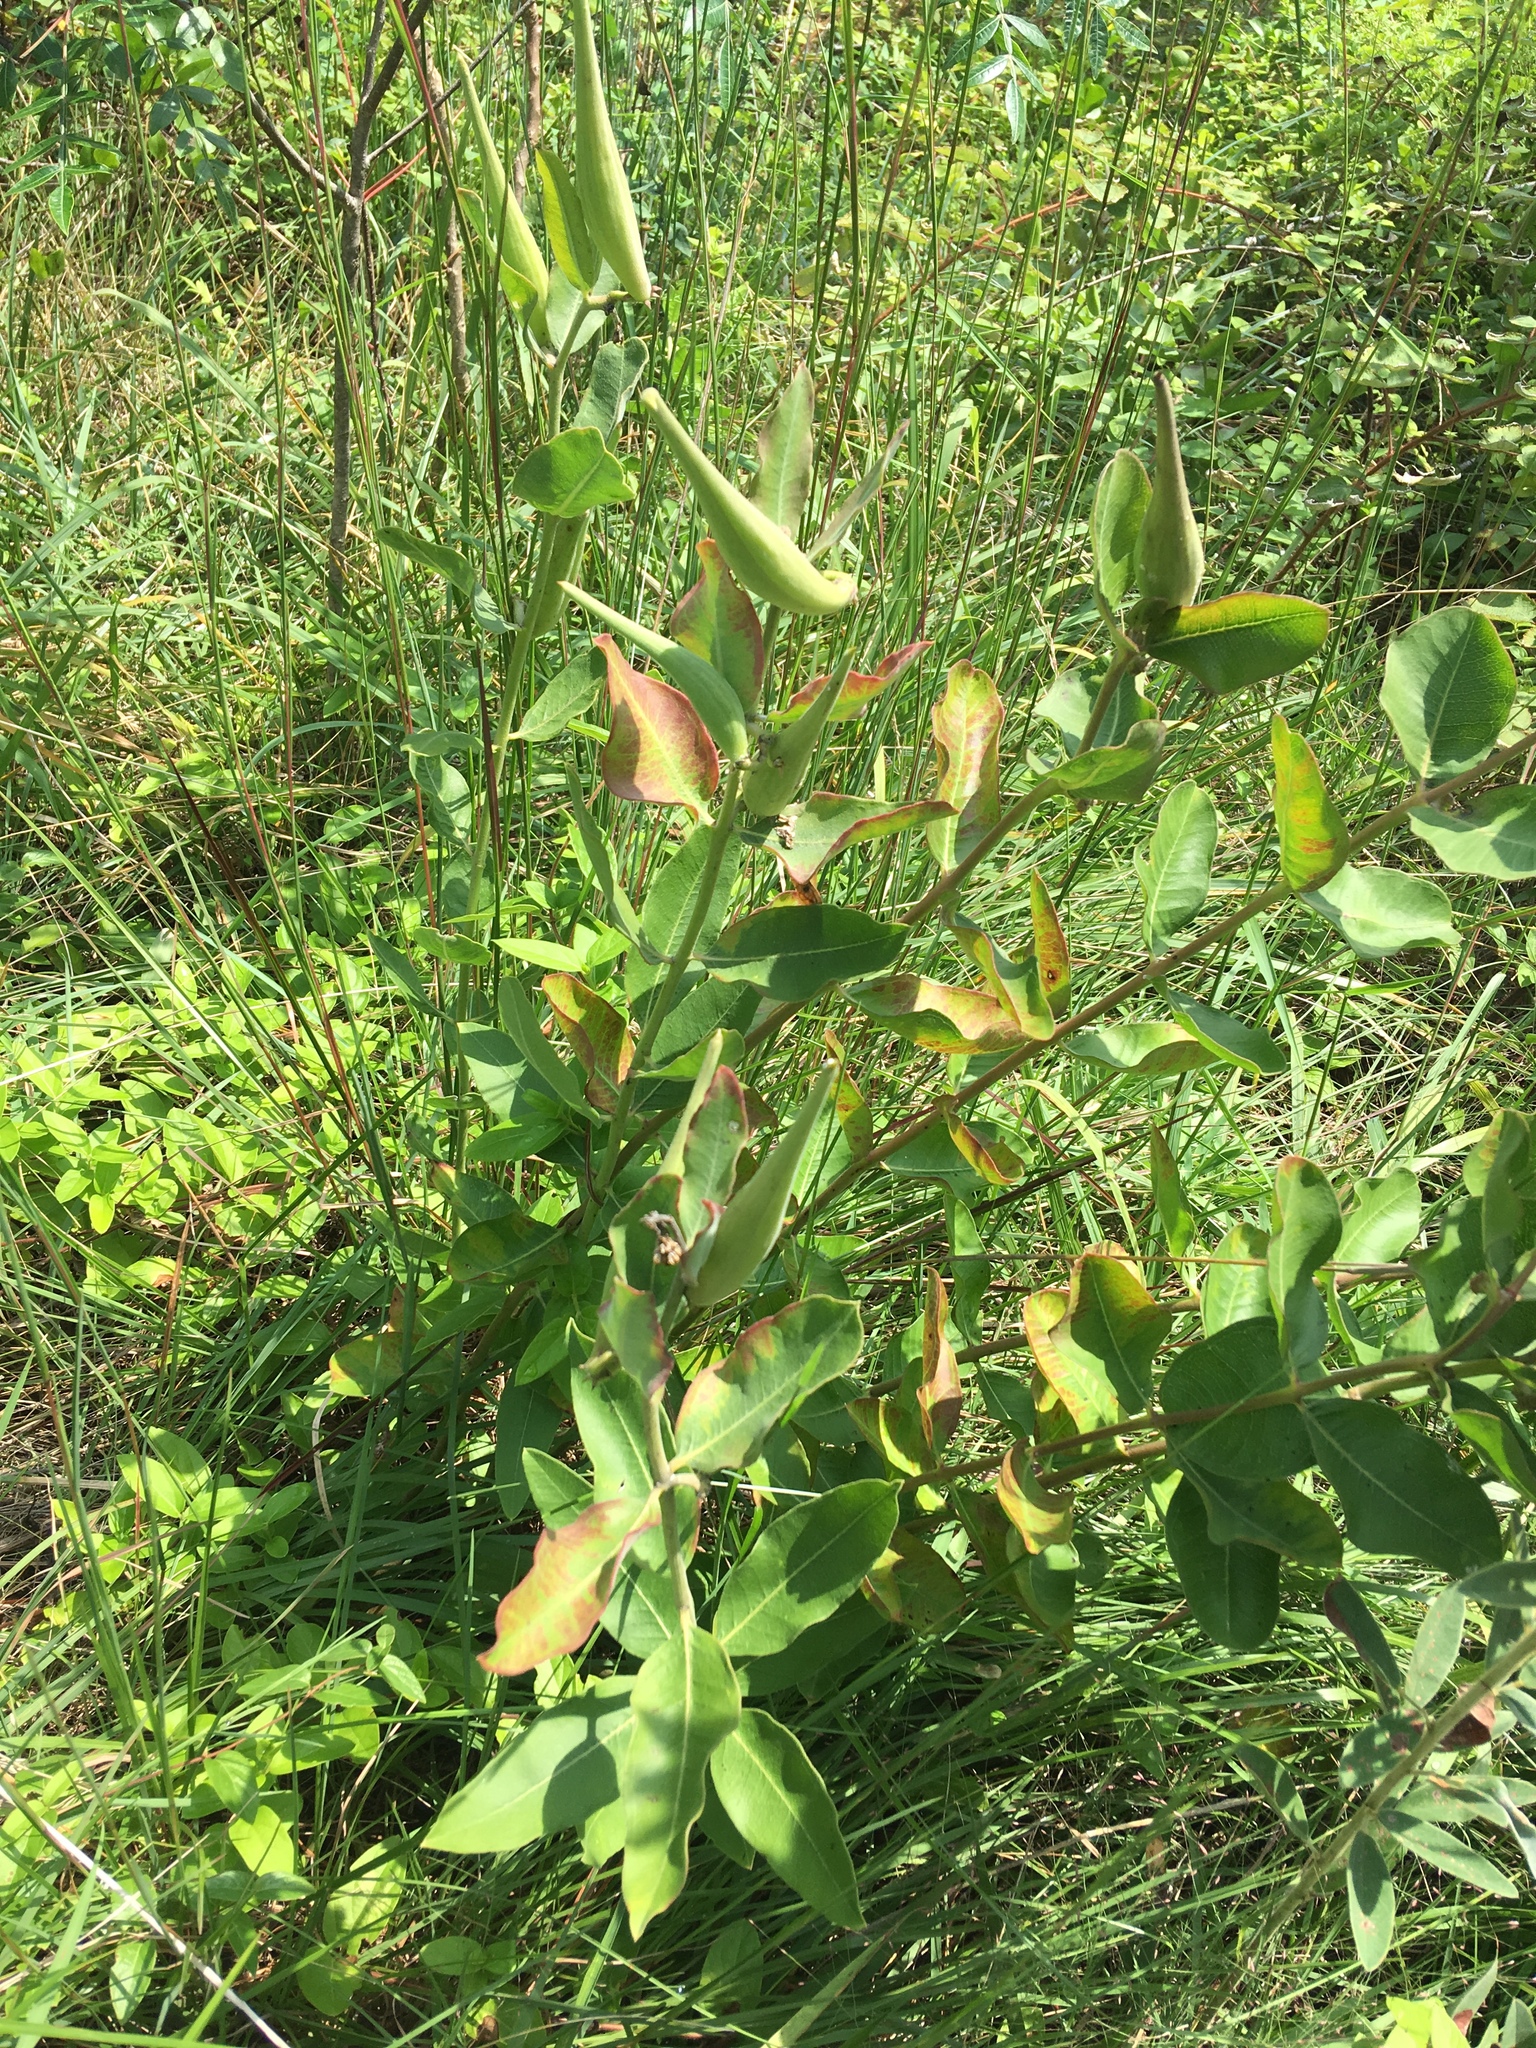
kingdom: Plantae
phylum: Tracheophyta
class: Magnoliopsida
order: Gentianales
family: Apocynaceae
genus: Asclepias
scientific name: Asclepias viridiflora
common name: Green comet milkweed
